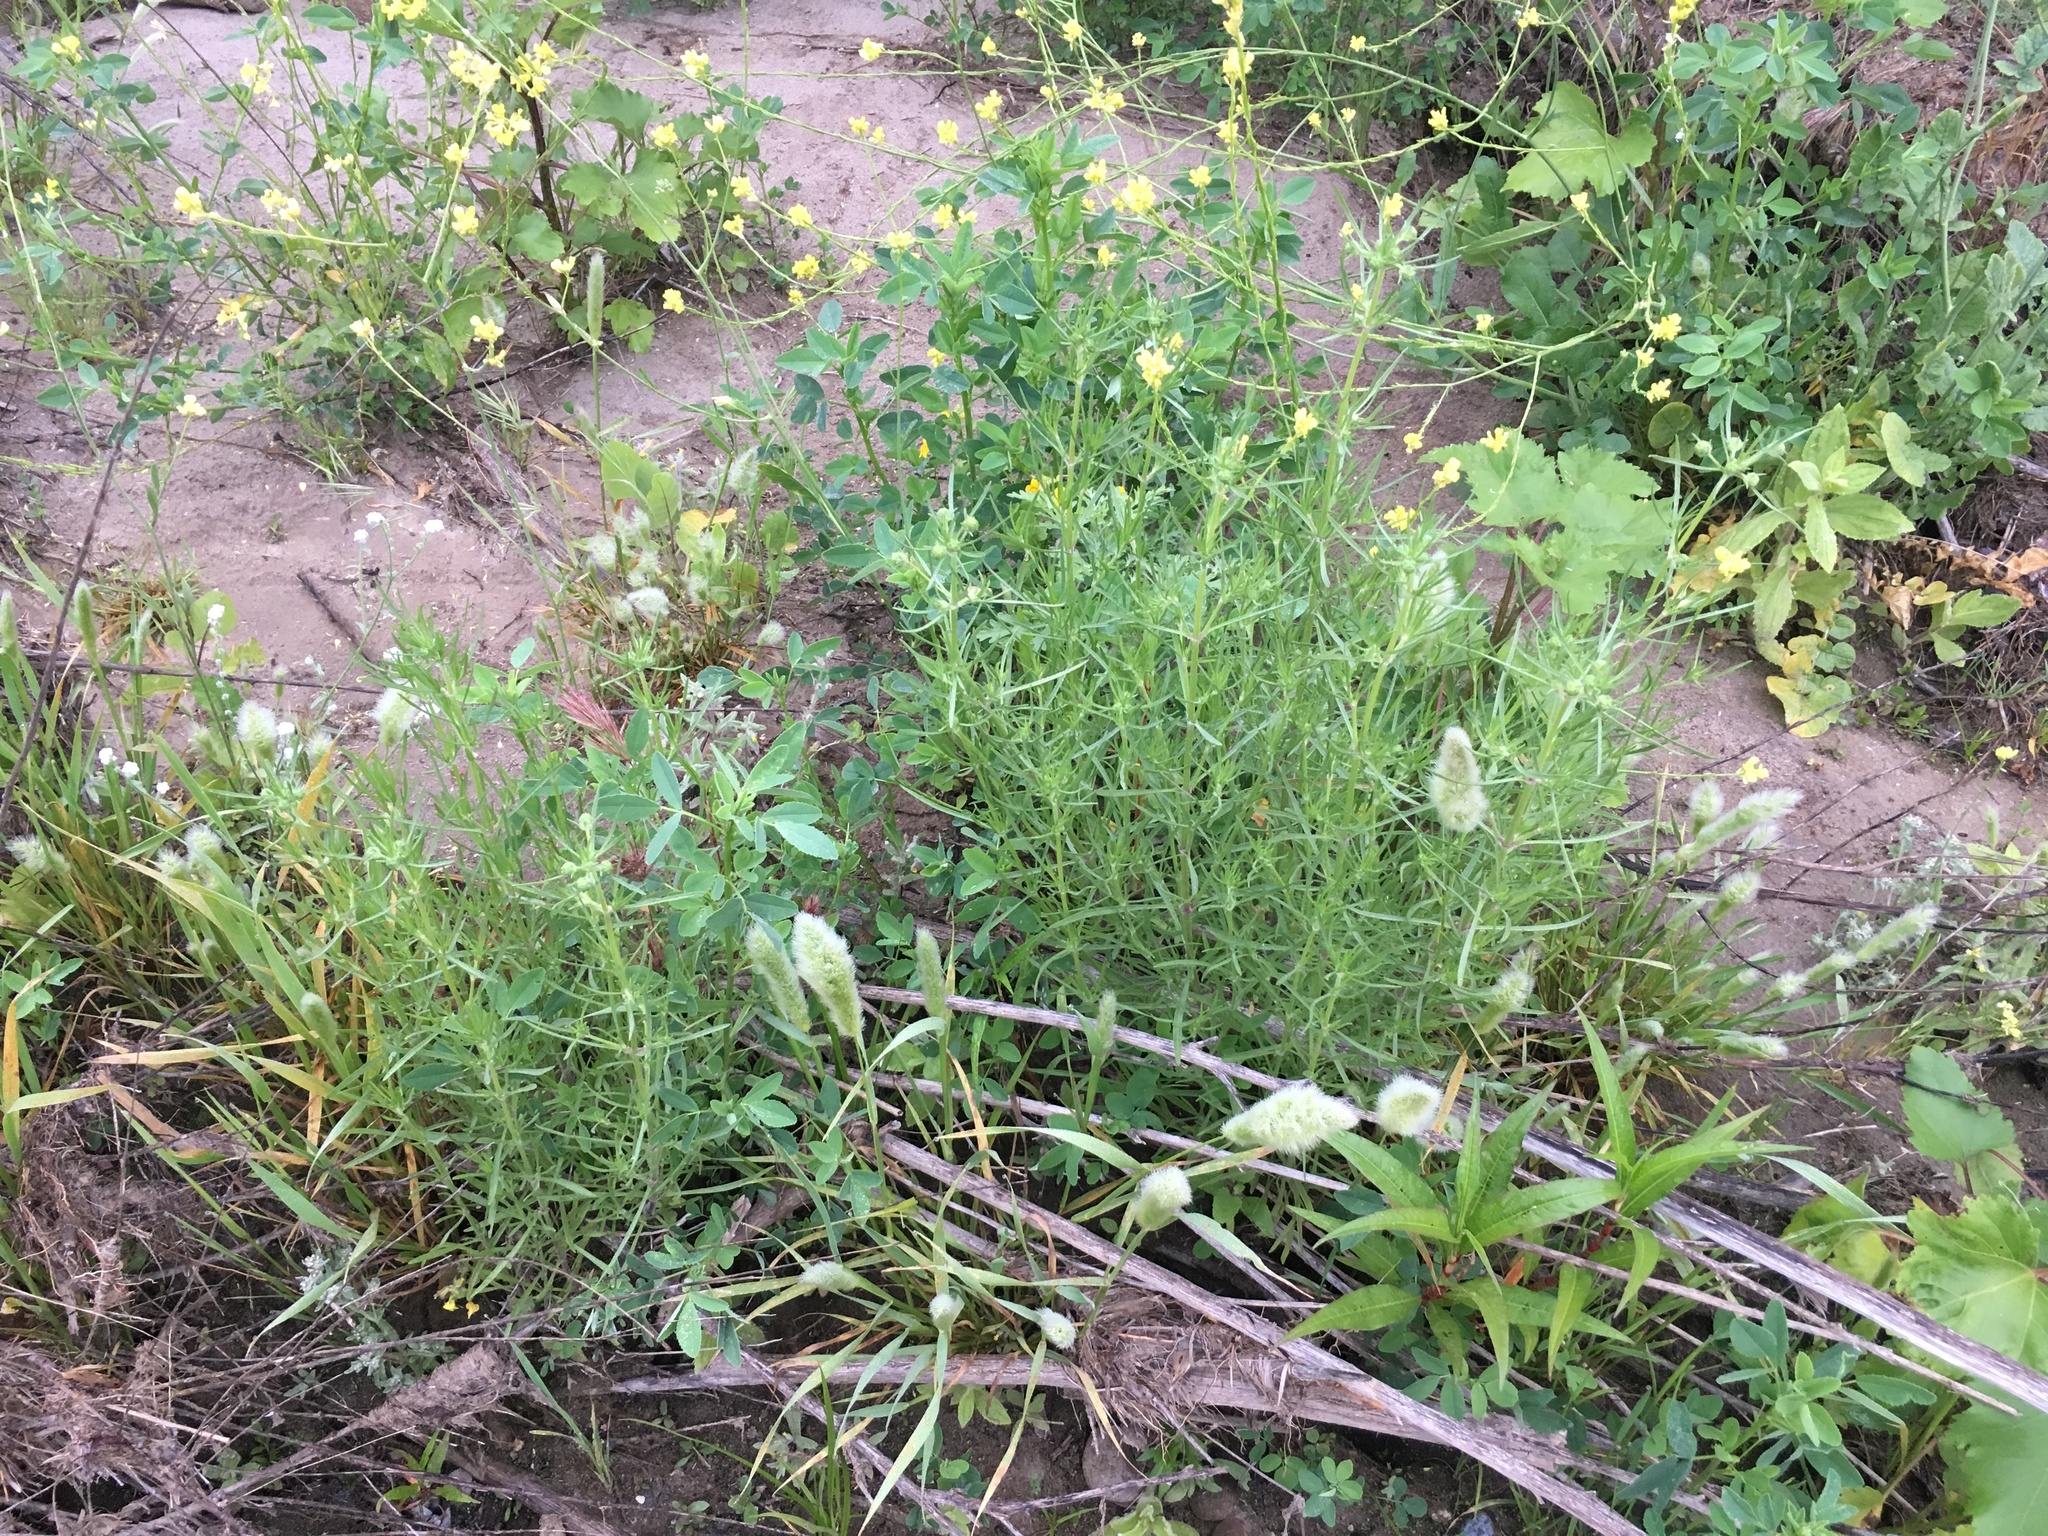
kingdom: Plantae
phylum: Tracheophyta
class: Magnoliopsida
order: Lamiales
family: Plantaginaceae
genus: Plantago
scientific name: Plantago arenaria
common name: Branched plantain
